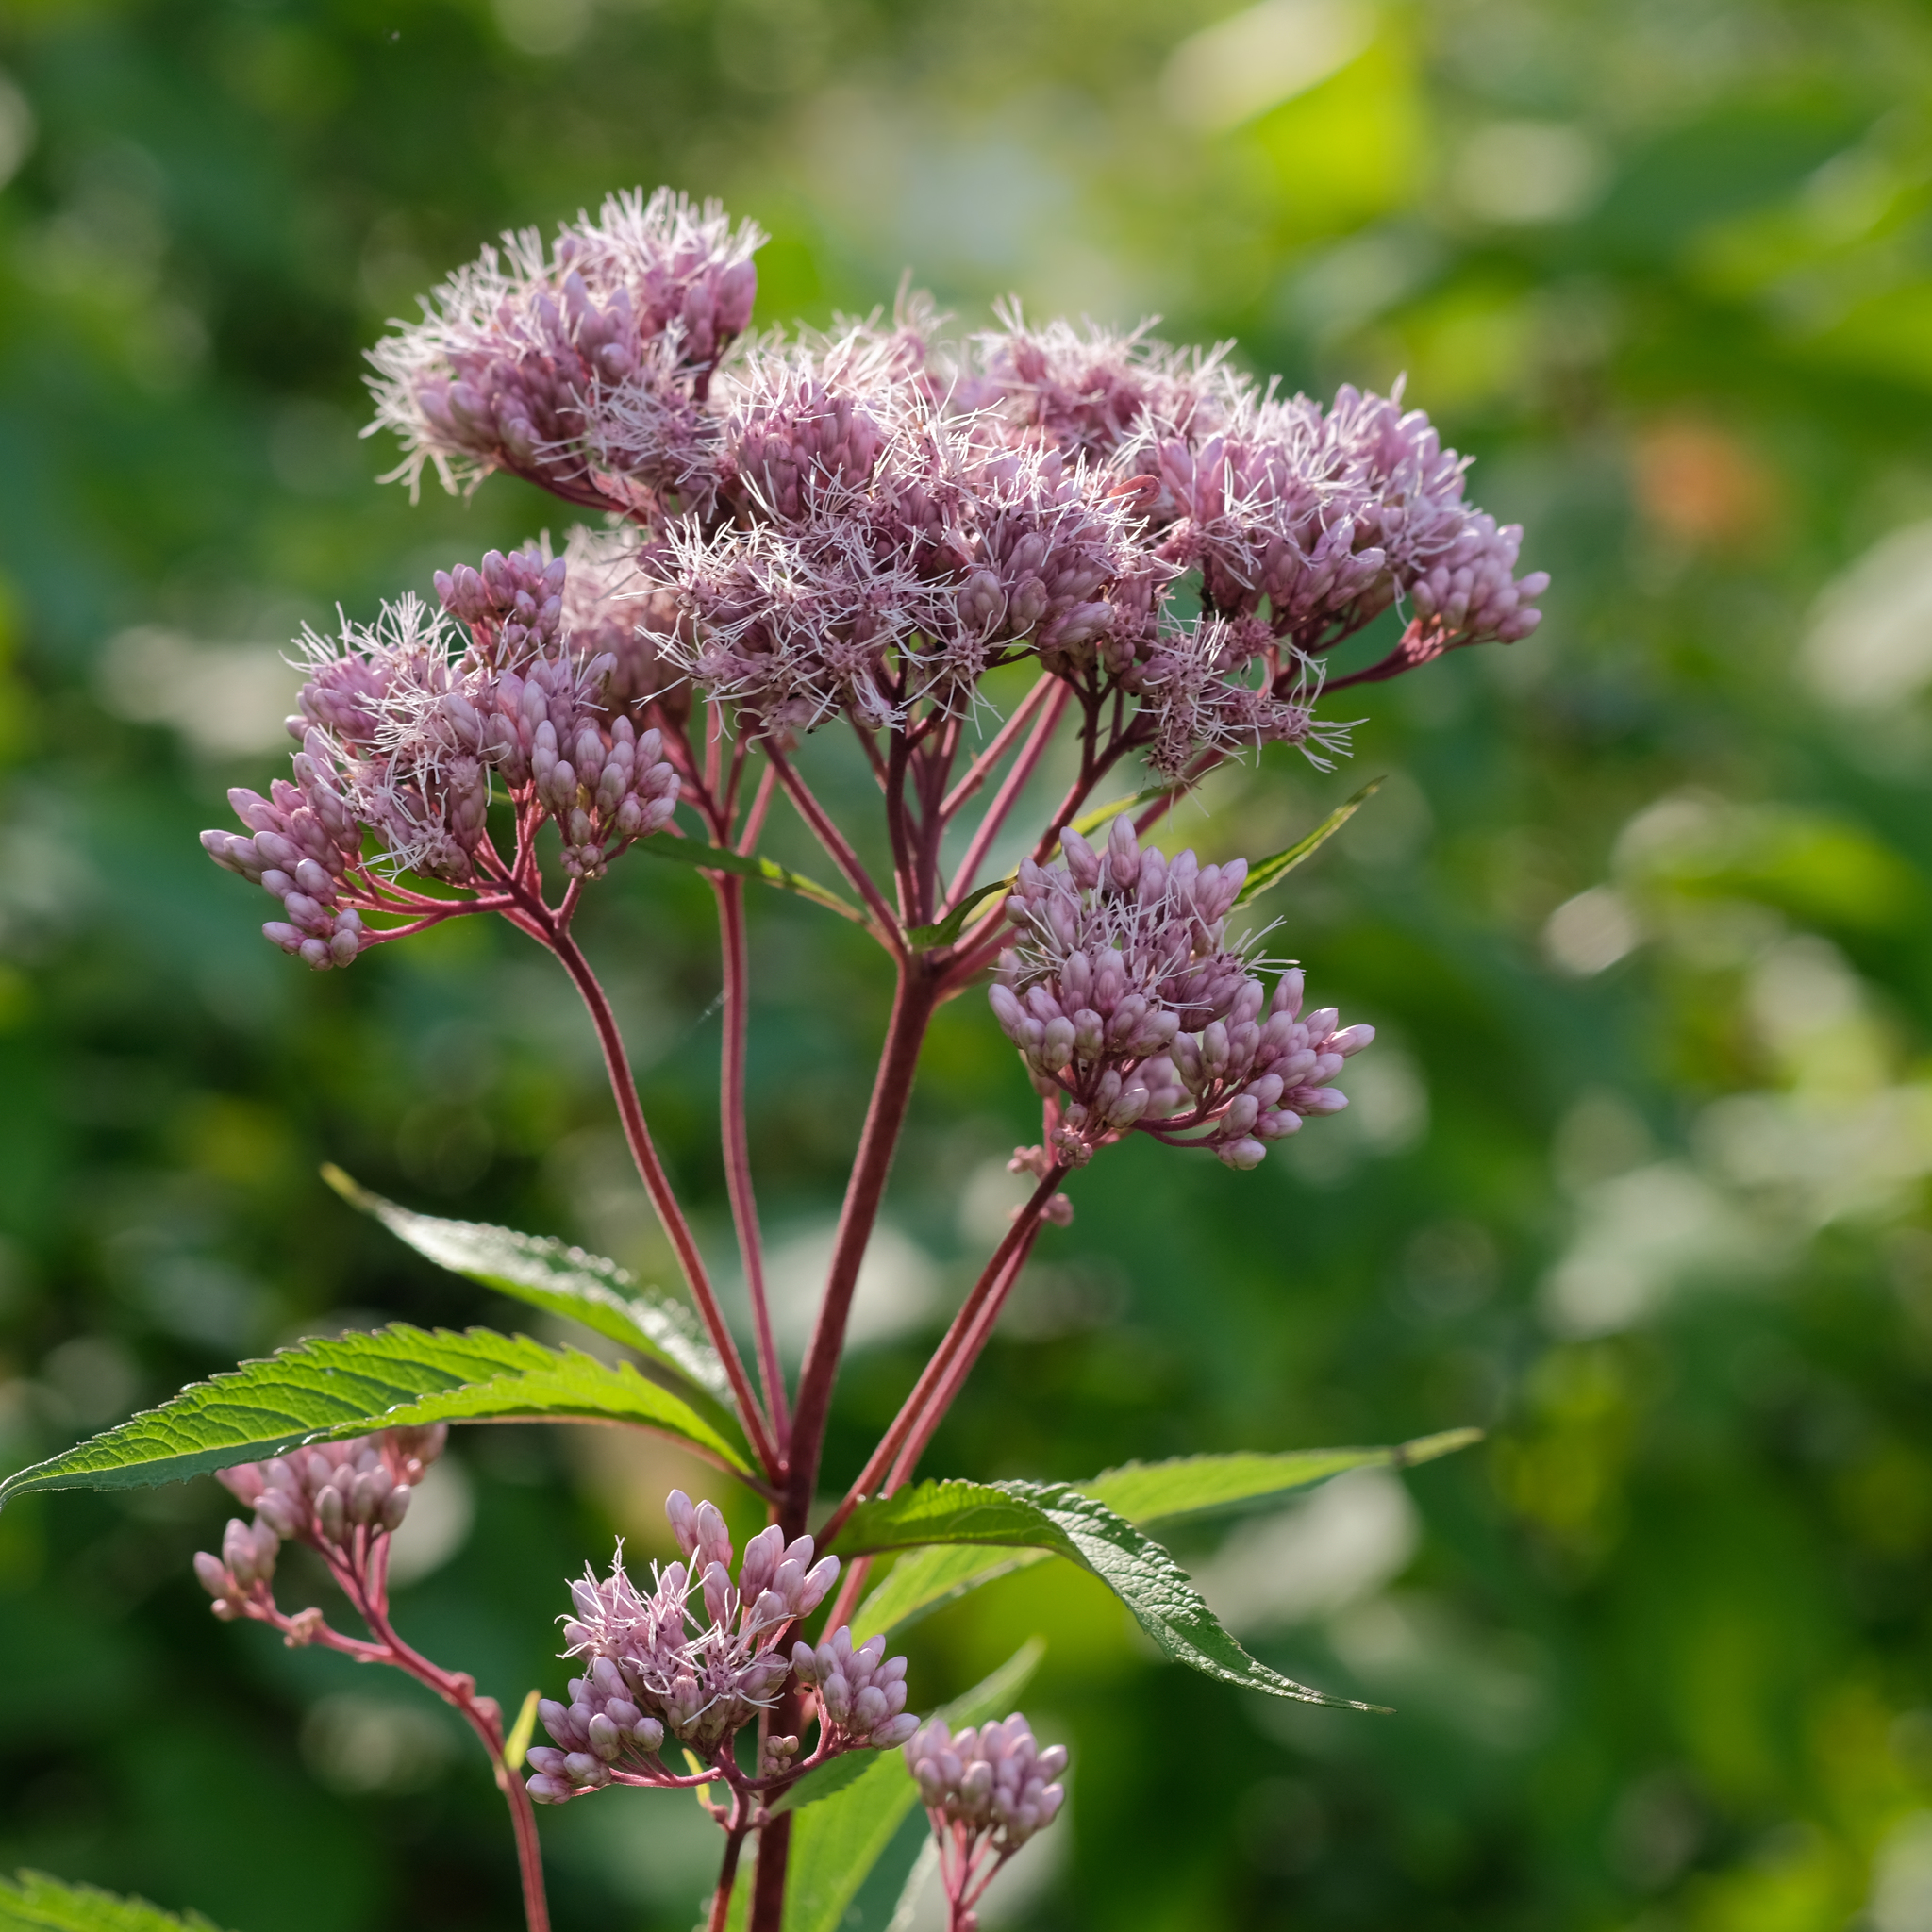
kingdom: Plantae
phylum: Tracheophyta
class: Magnoliopsida
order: Asterales
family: Asteraceae
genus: Eutrochium
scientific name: Eutrochium maculatum
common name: Spotted joe pye weed
